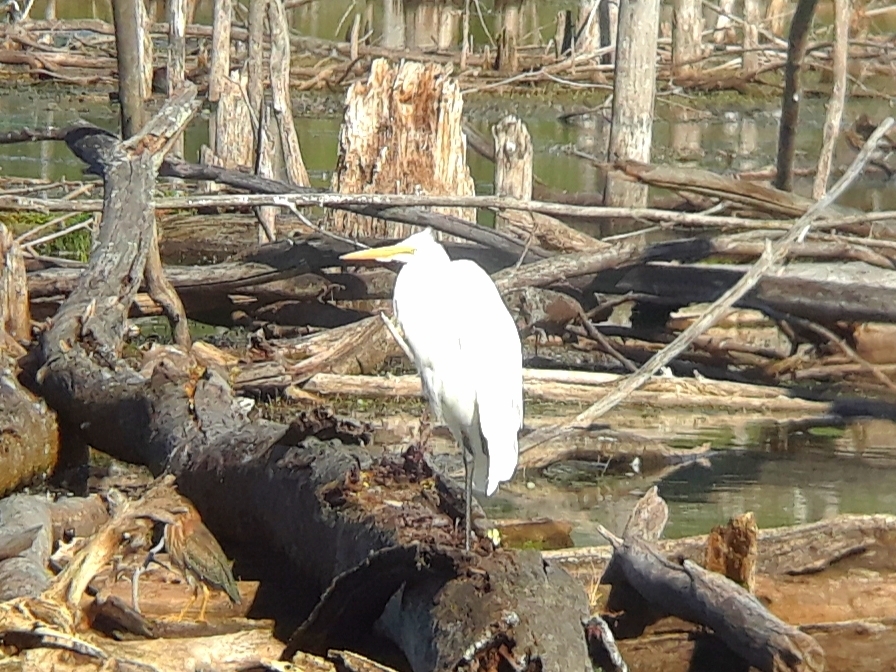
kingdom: Animalia
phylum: Chordata
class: Aves
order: Pelecaniformes
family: Ardeidae
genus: Ardea
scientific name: Ardea alba
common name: Great egret
